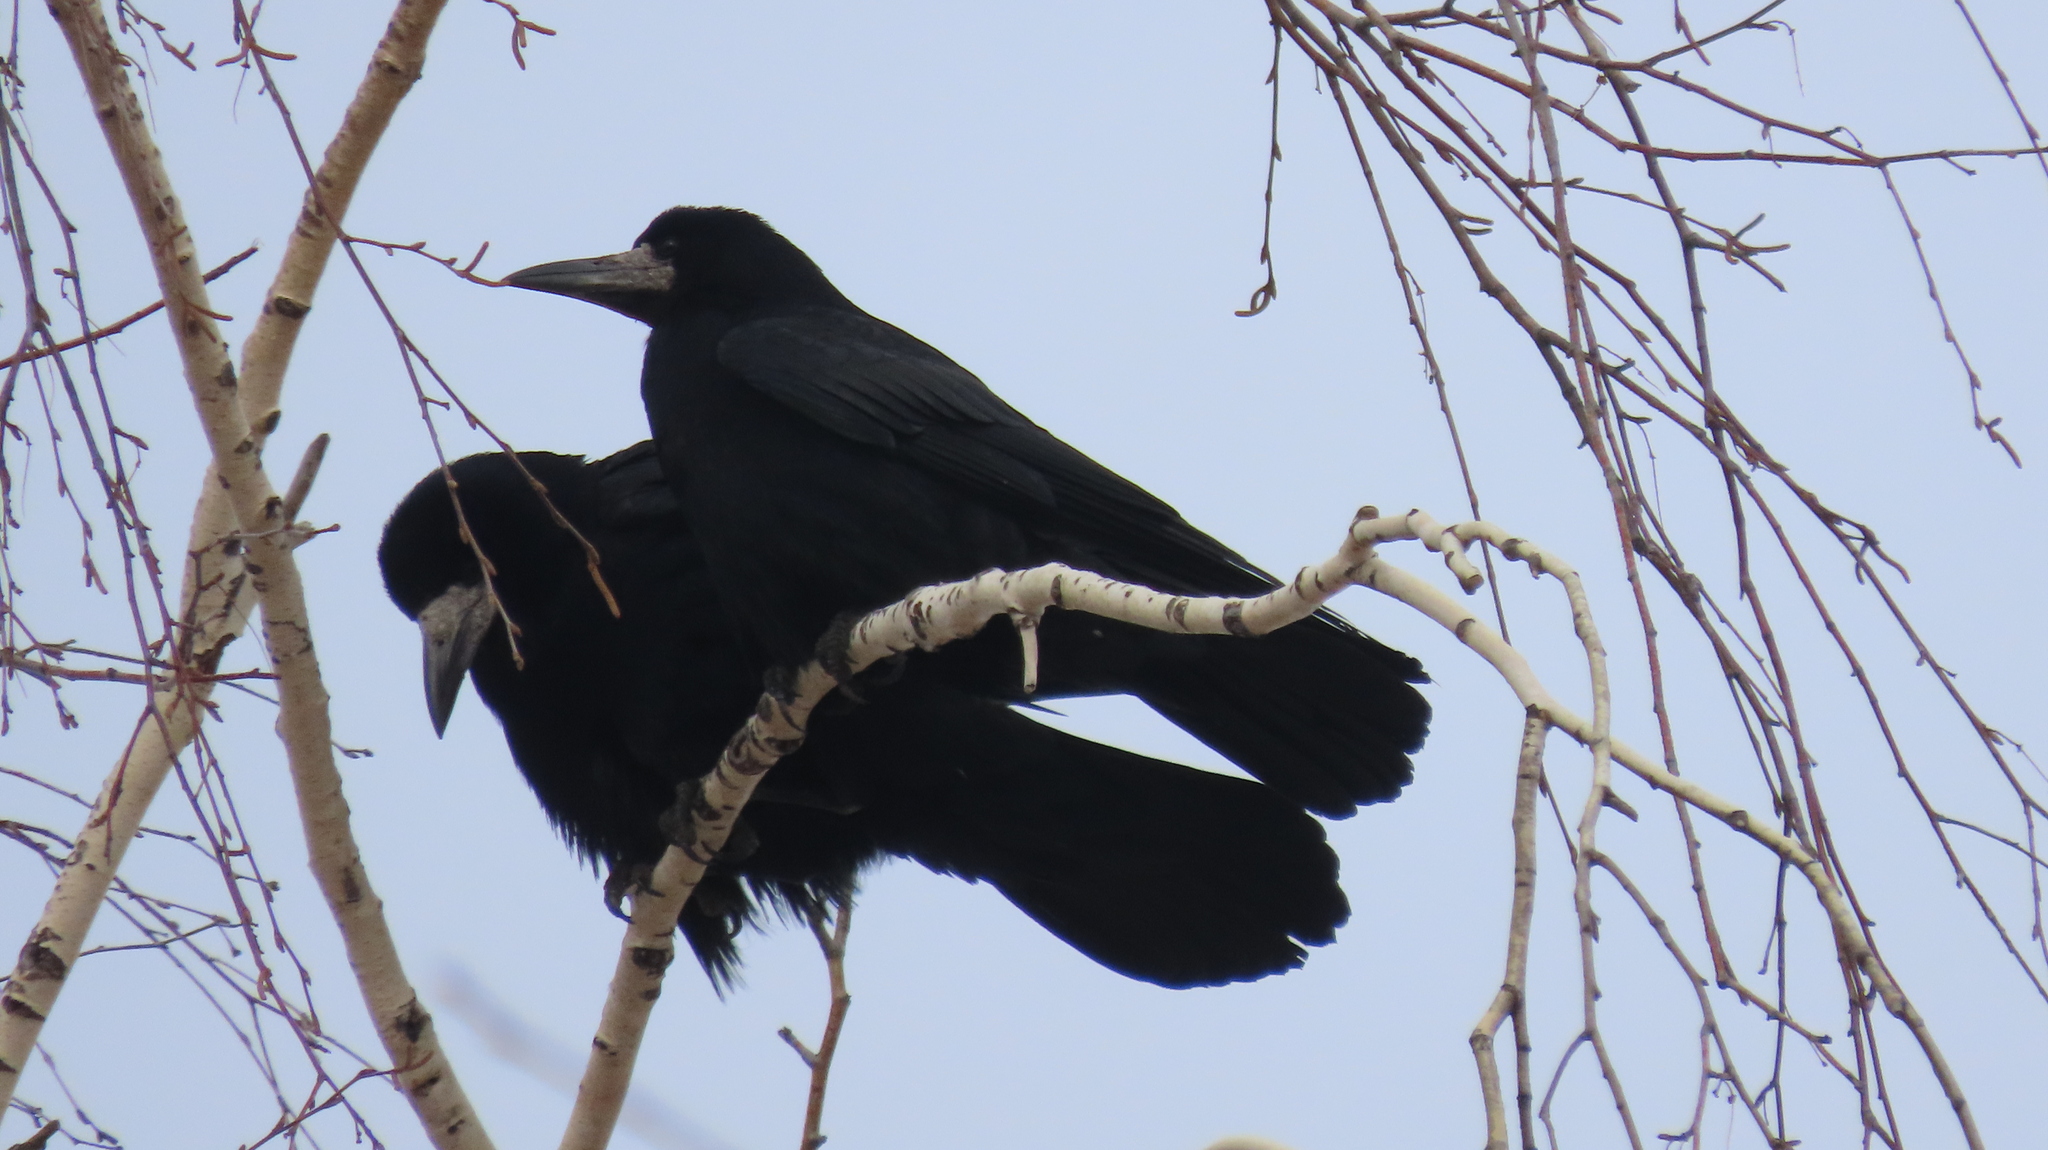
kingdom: Animalia
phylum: Chordata
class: Aves
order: Passeriformes
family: Corvidae
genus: Corvus
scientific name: Corvus frugilegus
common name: Rook
